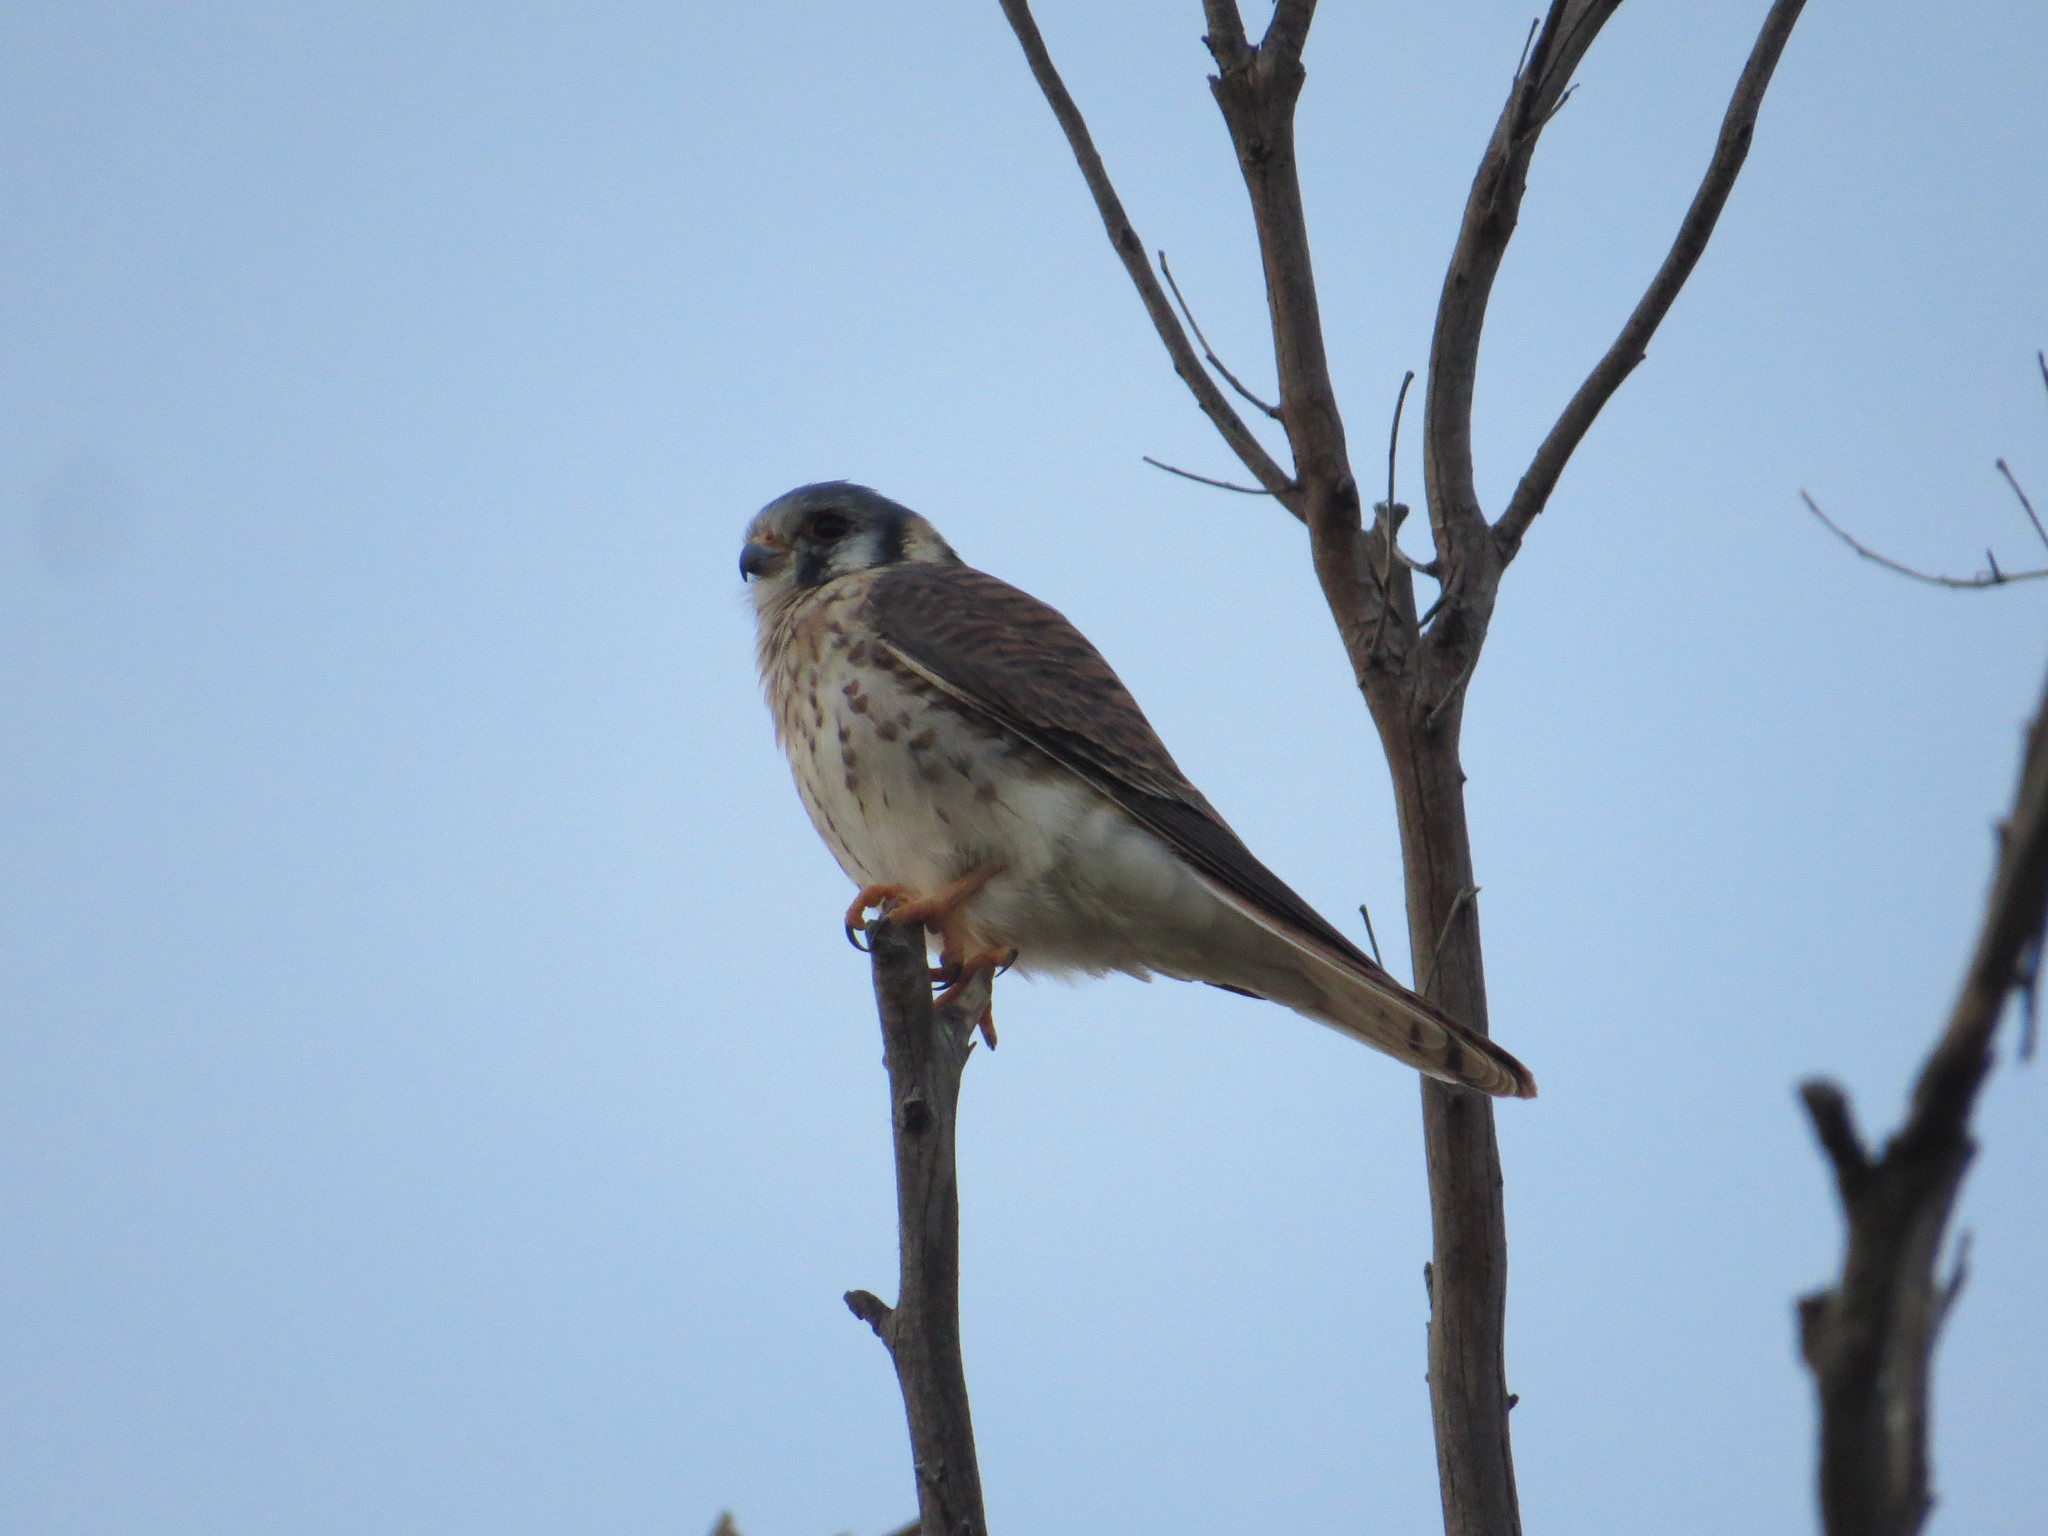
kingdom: Animalia
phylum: Chordata
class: Aves
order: Falconiformes
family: Falconidae
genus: Falco
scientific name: Falco sparverius
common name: American kestrel
